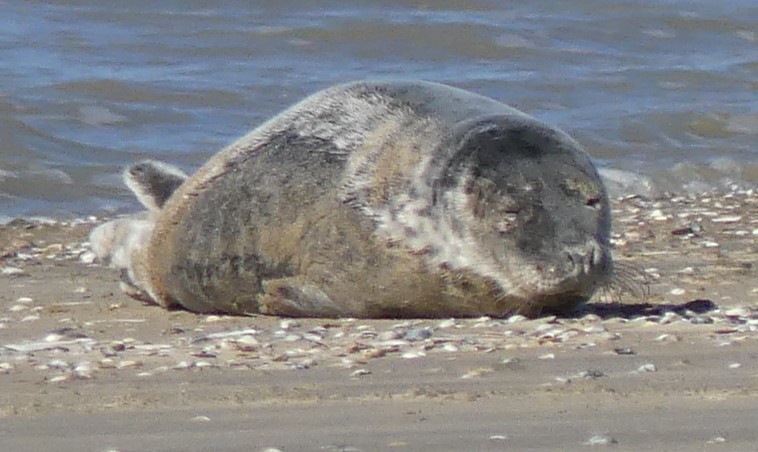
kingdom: Animalia
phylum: Chordata
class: Mammalia
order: Carnivora
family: Phocidae
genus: Halichoerus
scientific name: Halichoerus grypus
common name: Grey seal
